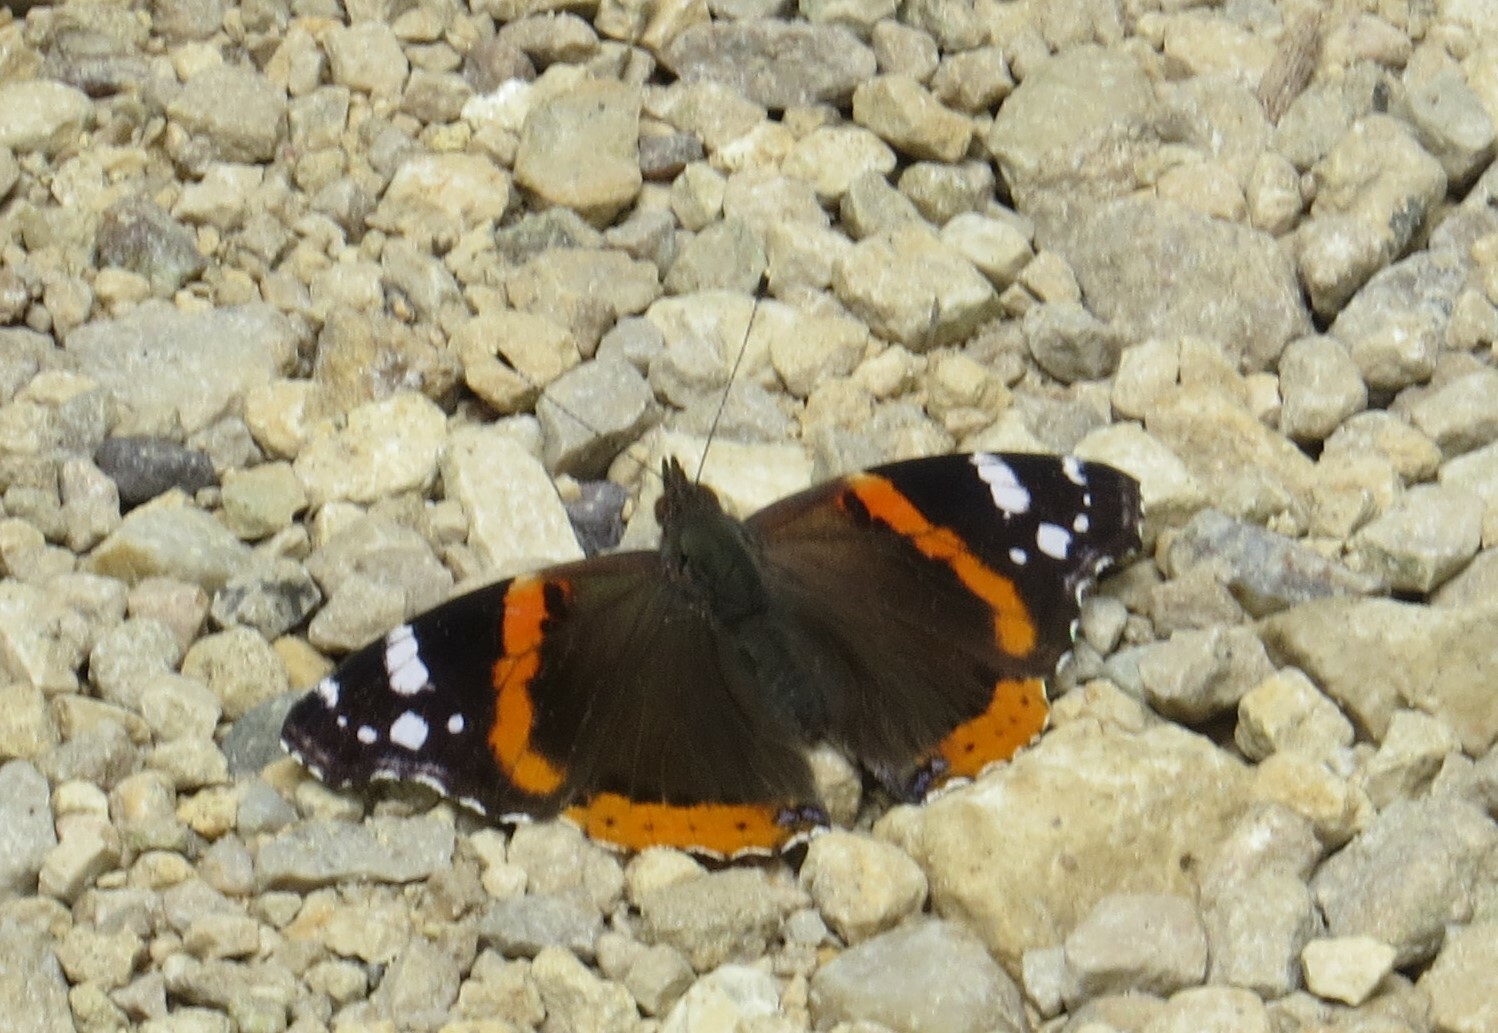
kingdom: Animalia
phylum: Arthropoda
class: Insecta
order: Lepidoptera
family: Nymphalidae
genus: Vanessa
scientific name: Vanessa atalanta
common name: Red admiral
